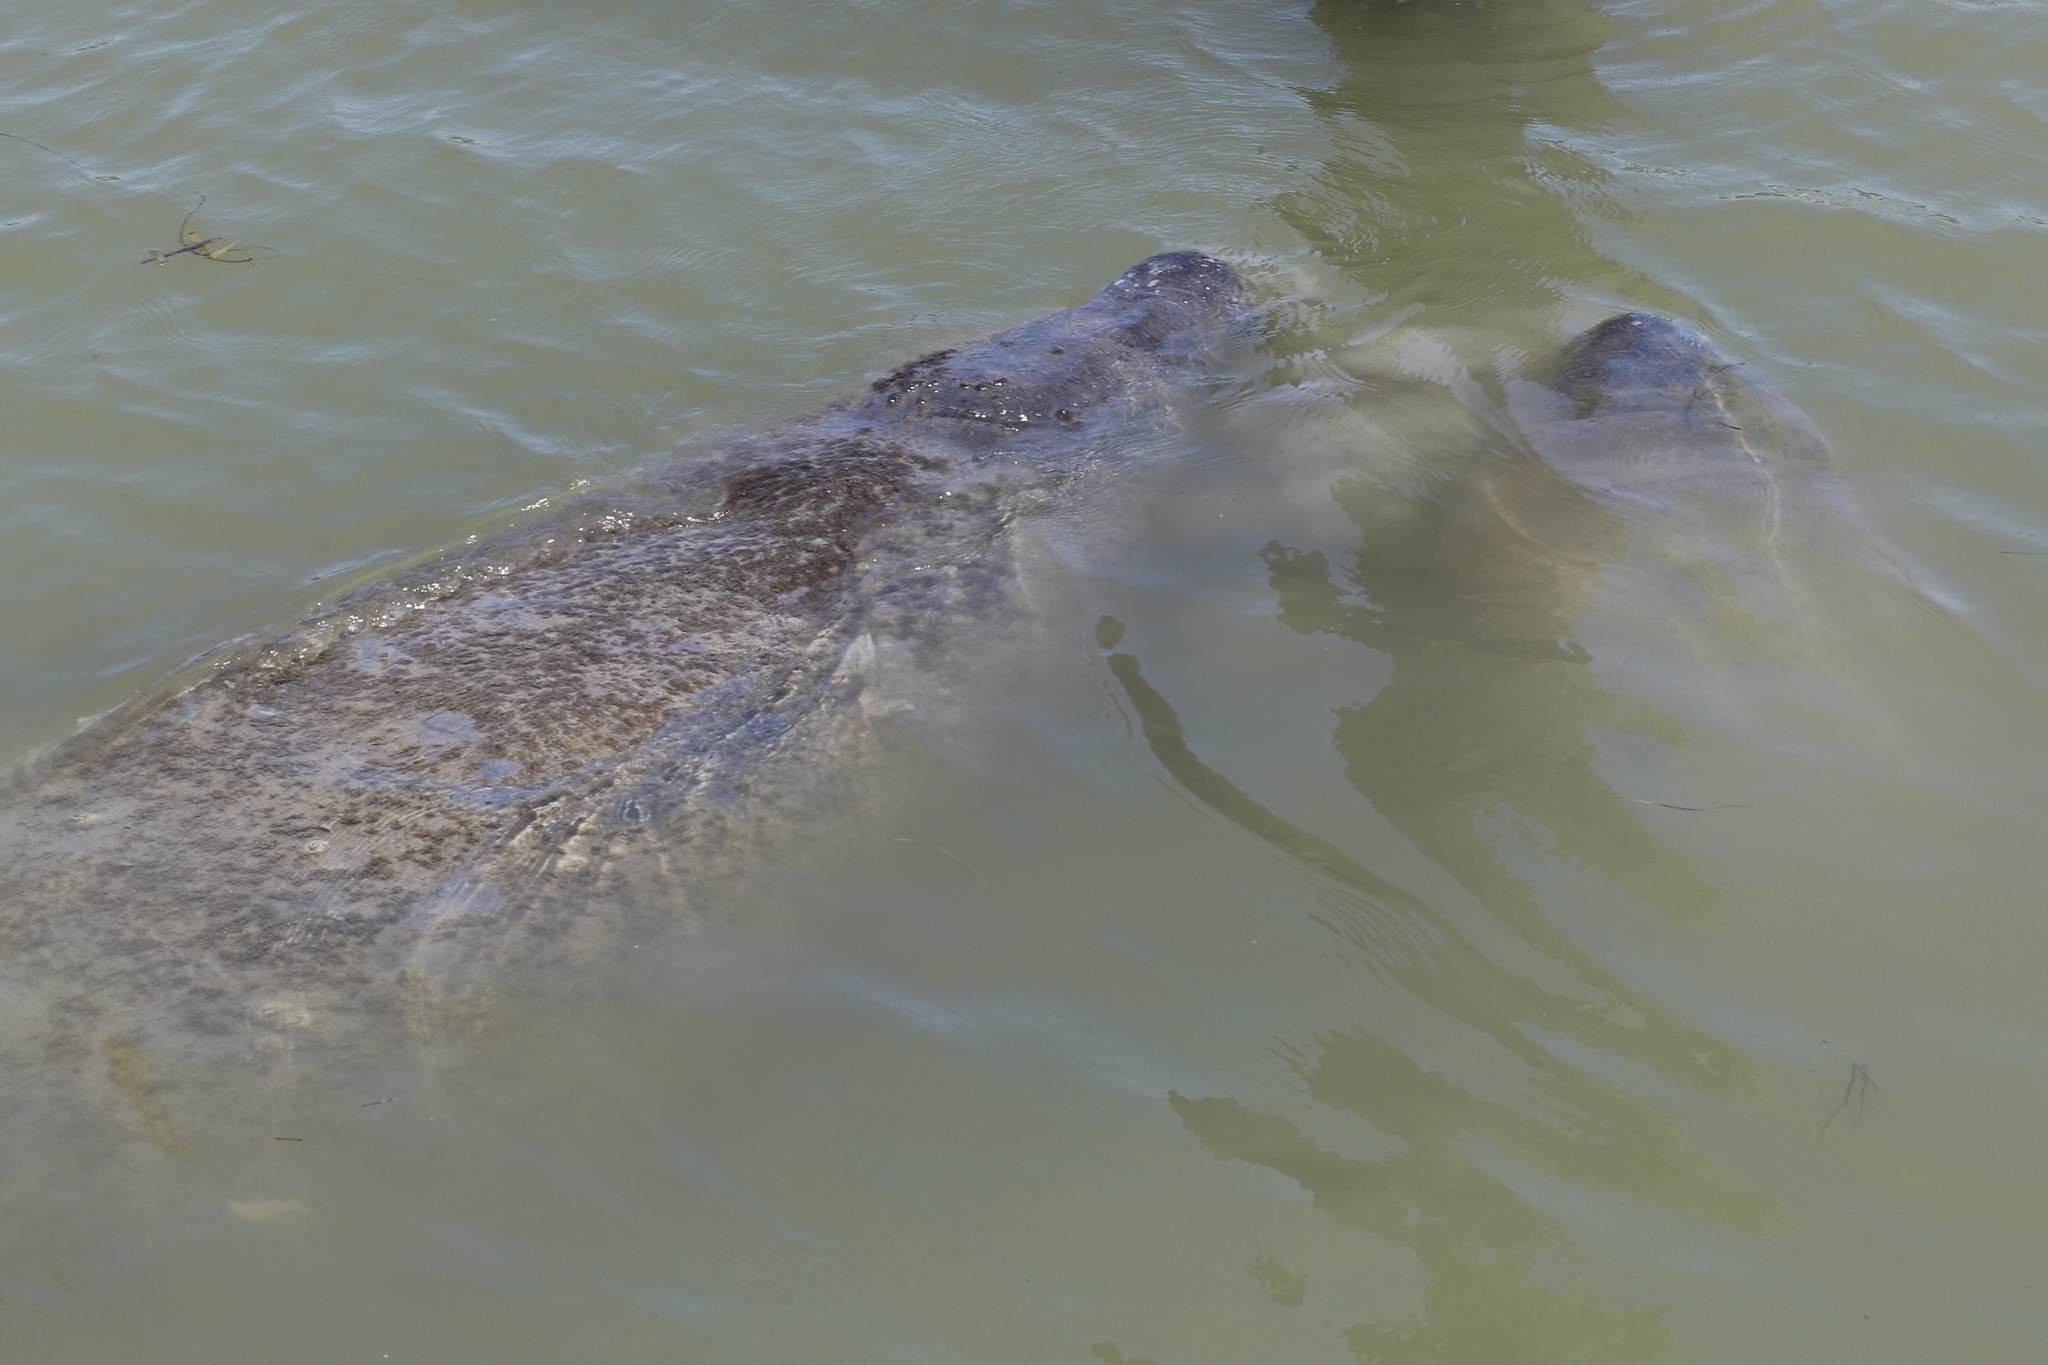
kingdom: Animalia
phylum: Chordata
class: Mammalia
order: Sirenia
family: Trichechidae
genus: Trichechus
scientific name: Trichechus manatus
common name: West indian manatee
